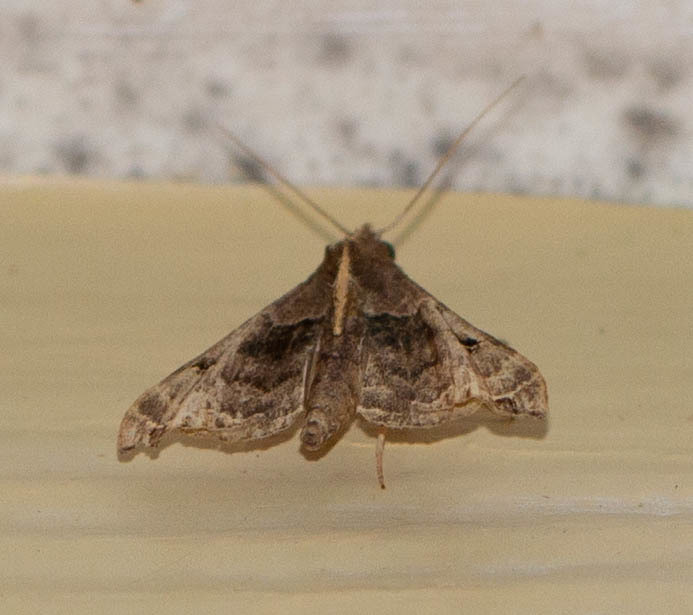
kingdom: Animalia
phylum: Arthropoda
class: Insecta
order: Lepidoptera
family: Erebidae
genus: Palthis
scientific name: Palthis asopialis
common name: Faint-spotted palthis moth
